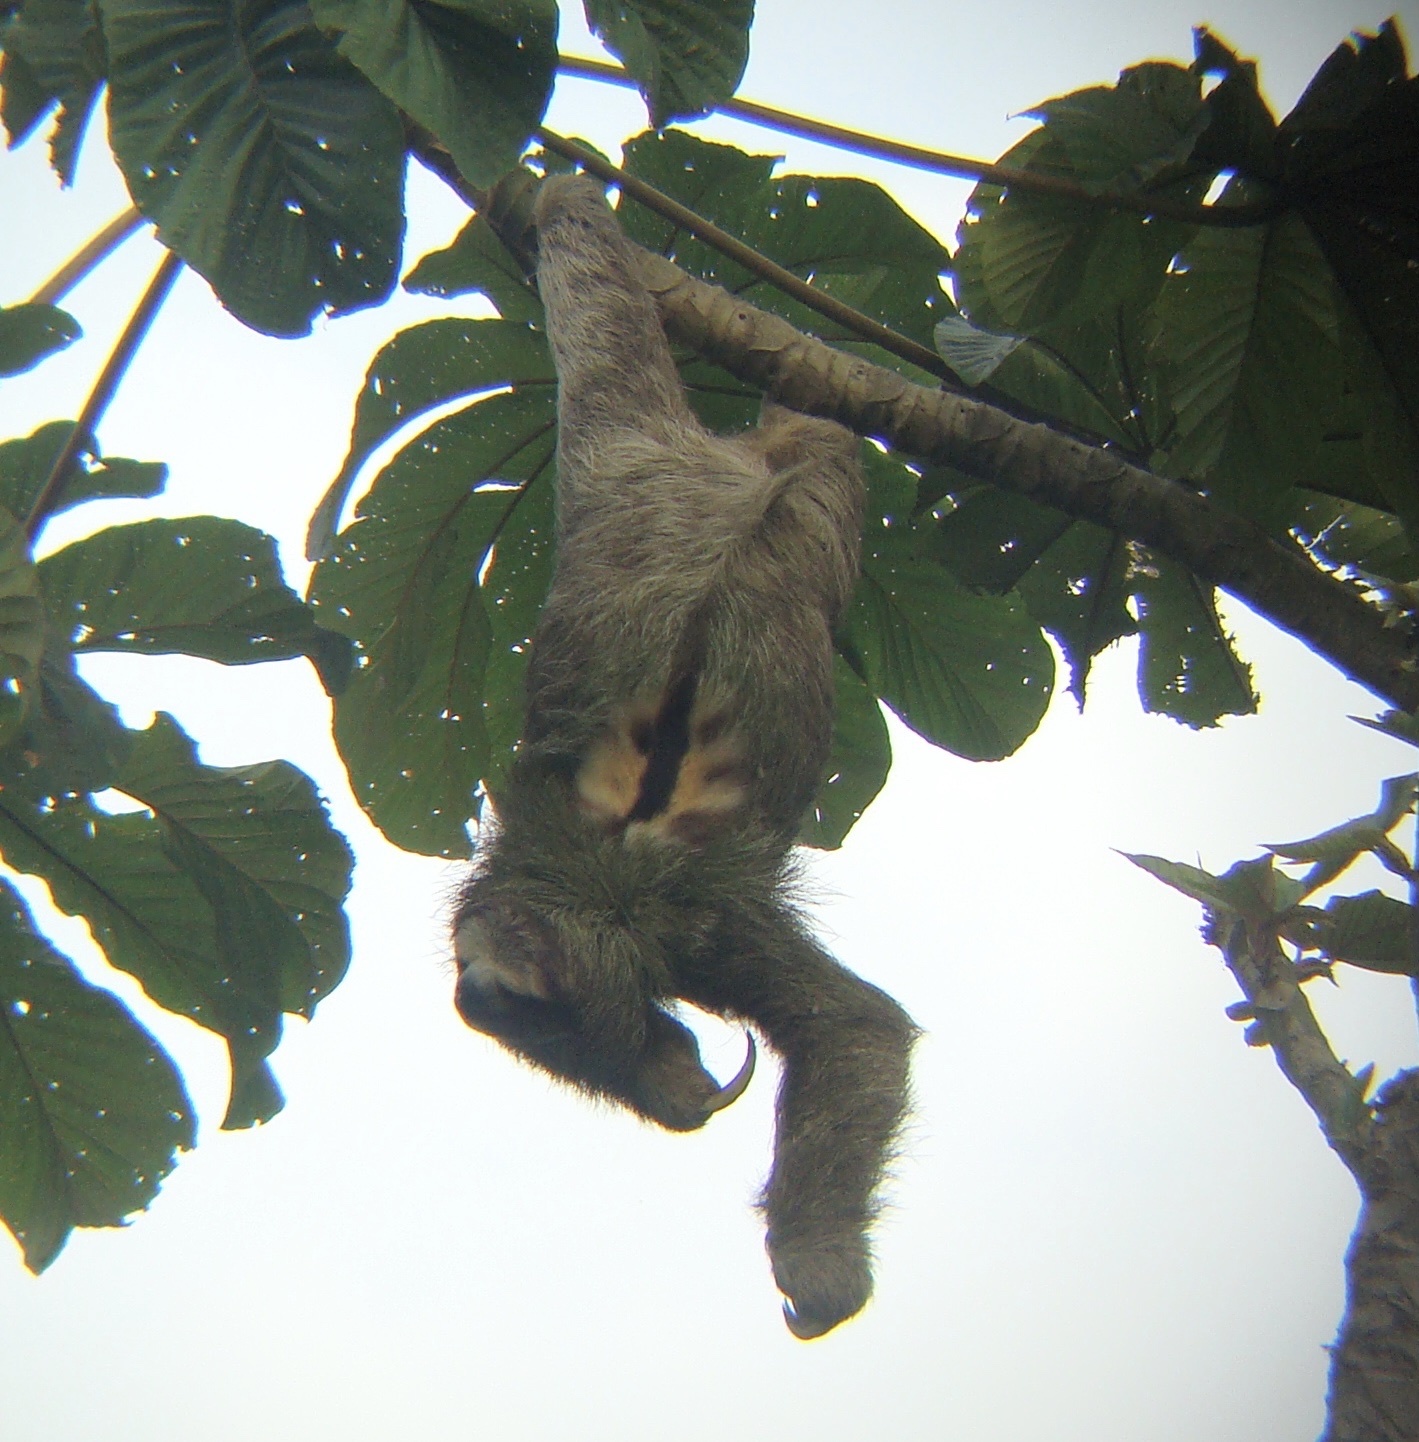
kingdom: Animalia
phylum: Chordata
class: Mammalia
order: Pilosa
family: Bradypodidae
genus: Bradypus
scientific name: Bradypus variegatus
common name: Brown-throated three-toed sloth
